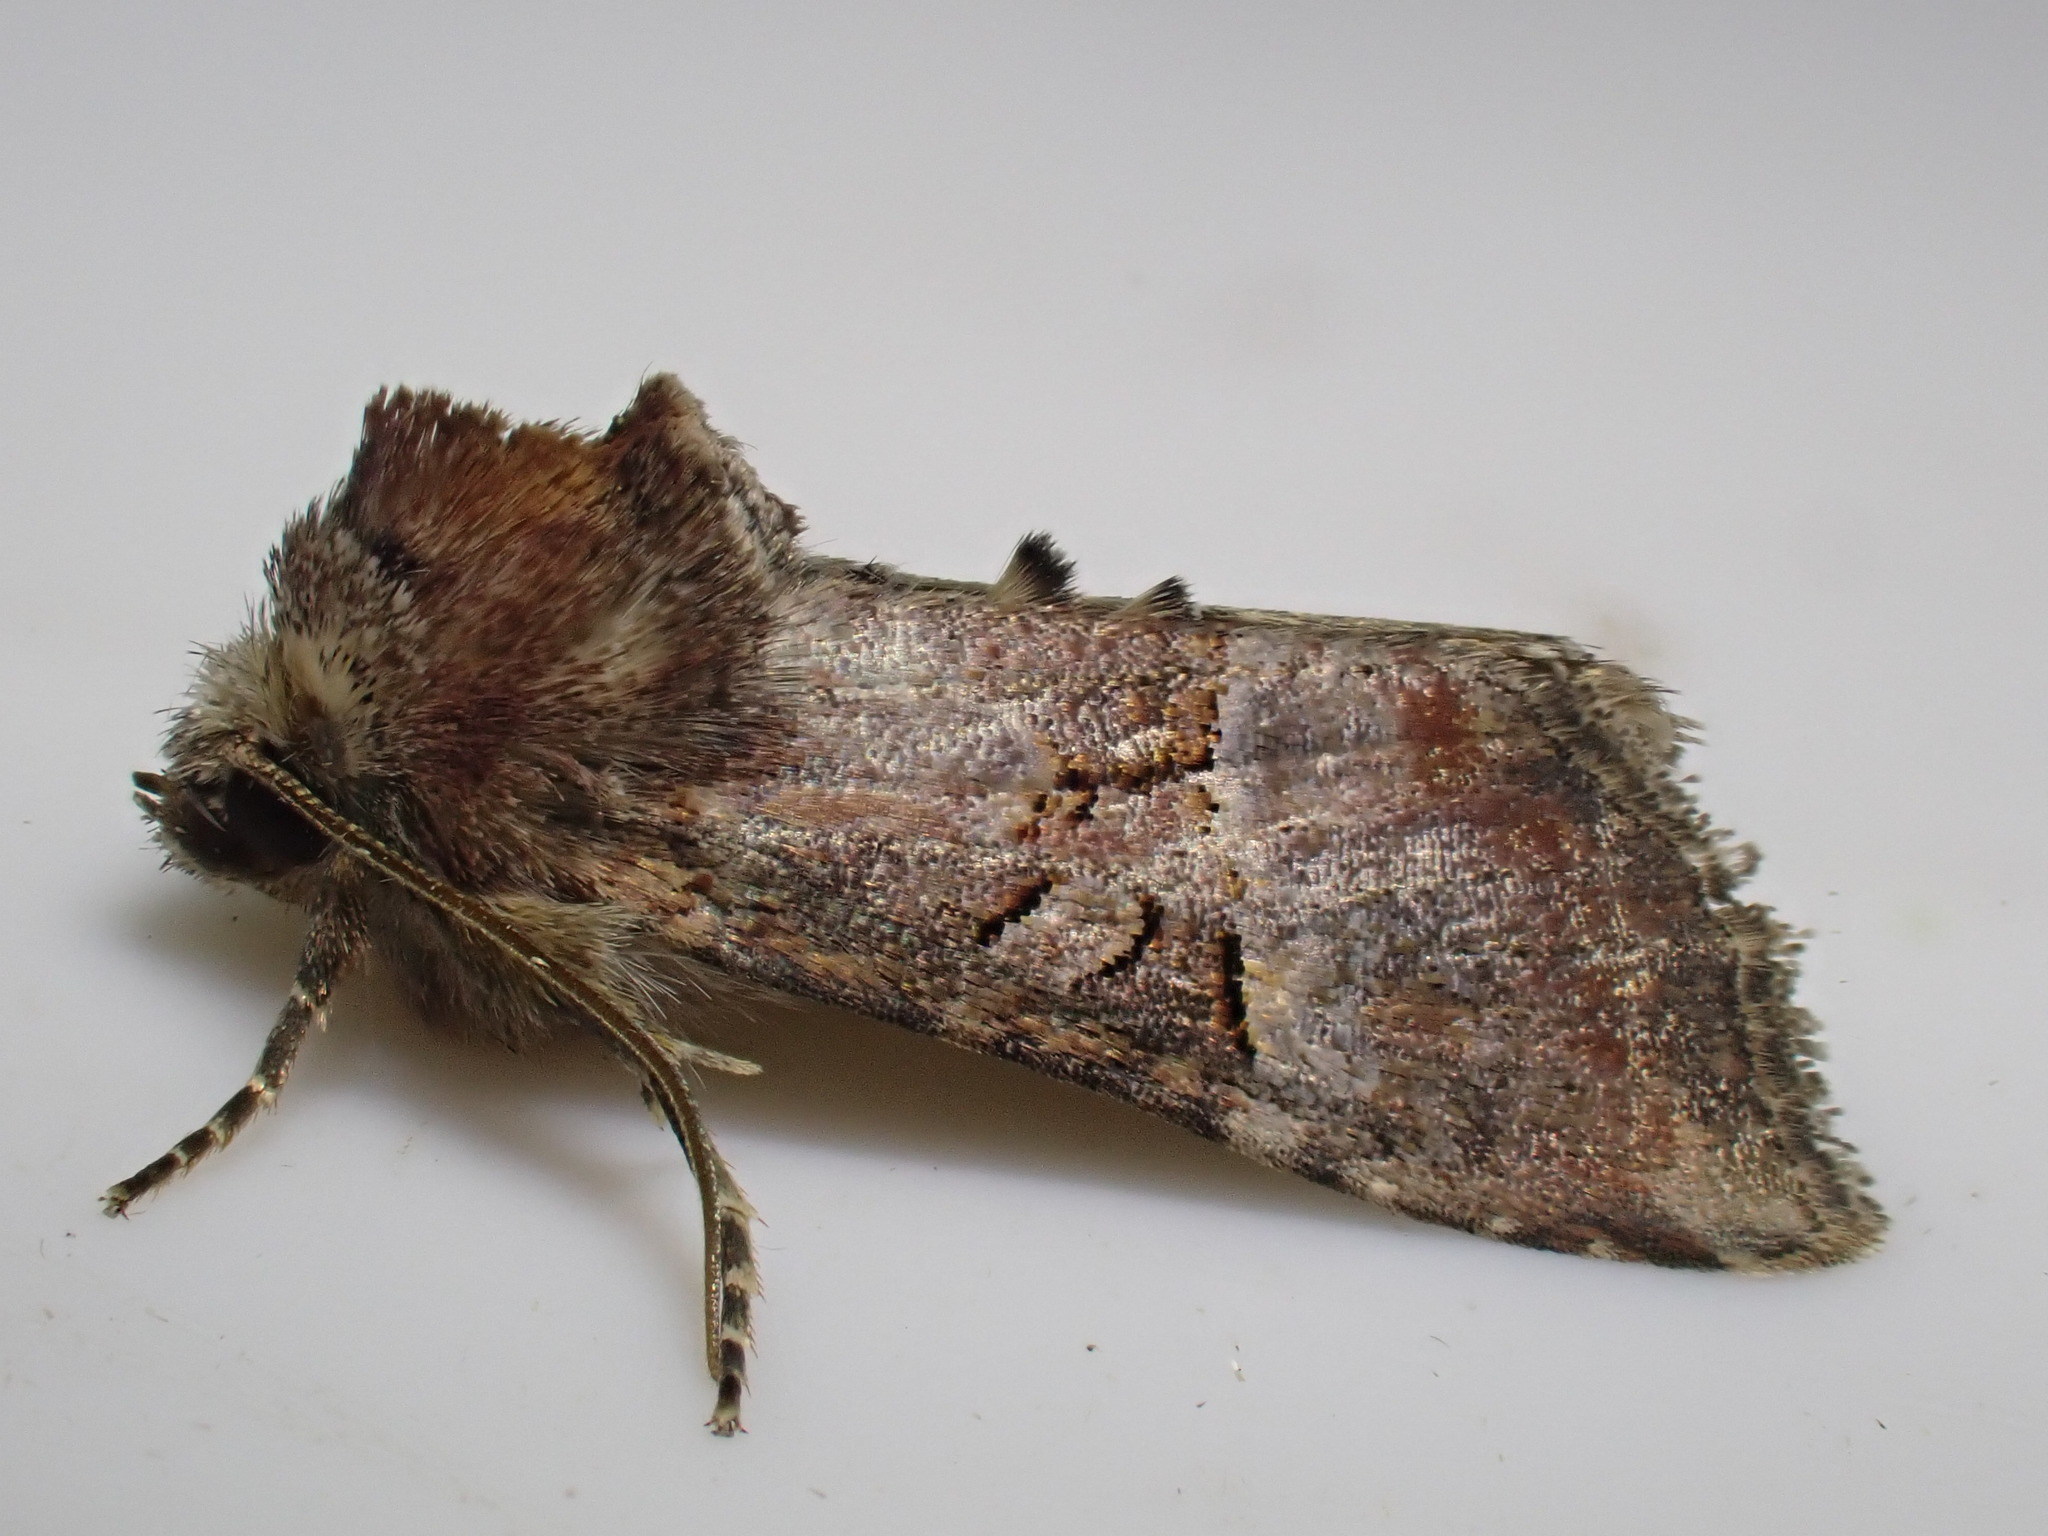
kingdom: Animalia
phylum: Arthropoda
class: Insecta
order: Lepidoptera
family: Noctuidae
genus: Litoligia
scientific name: Litoligia literosa
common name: Rosy minor
